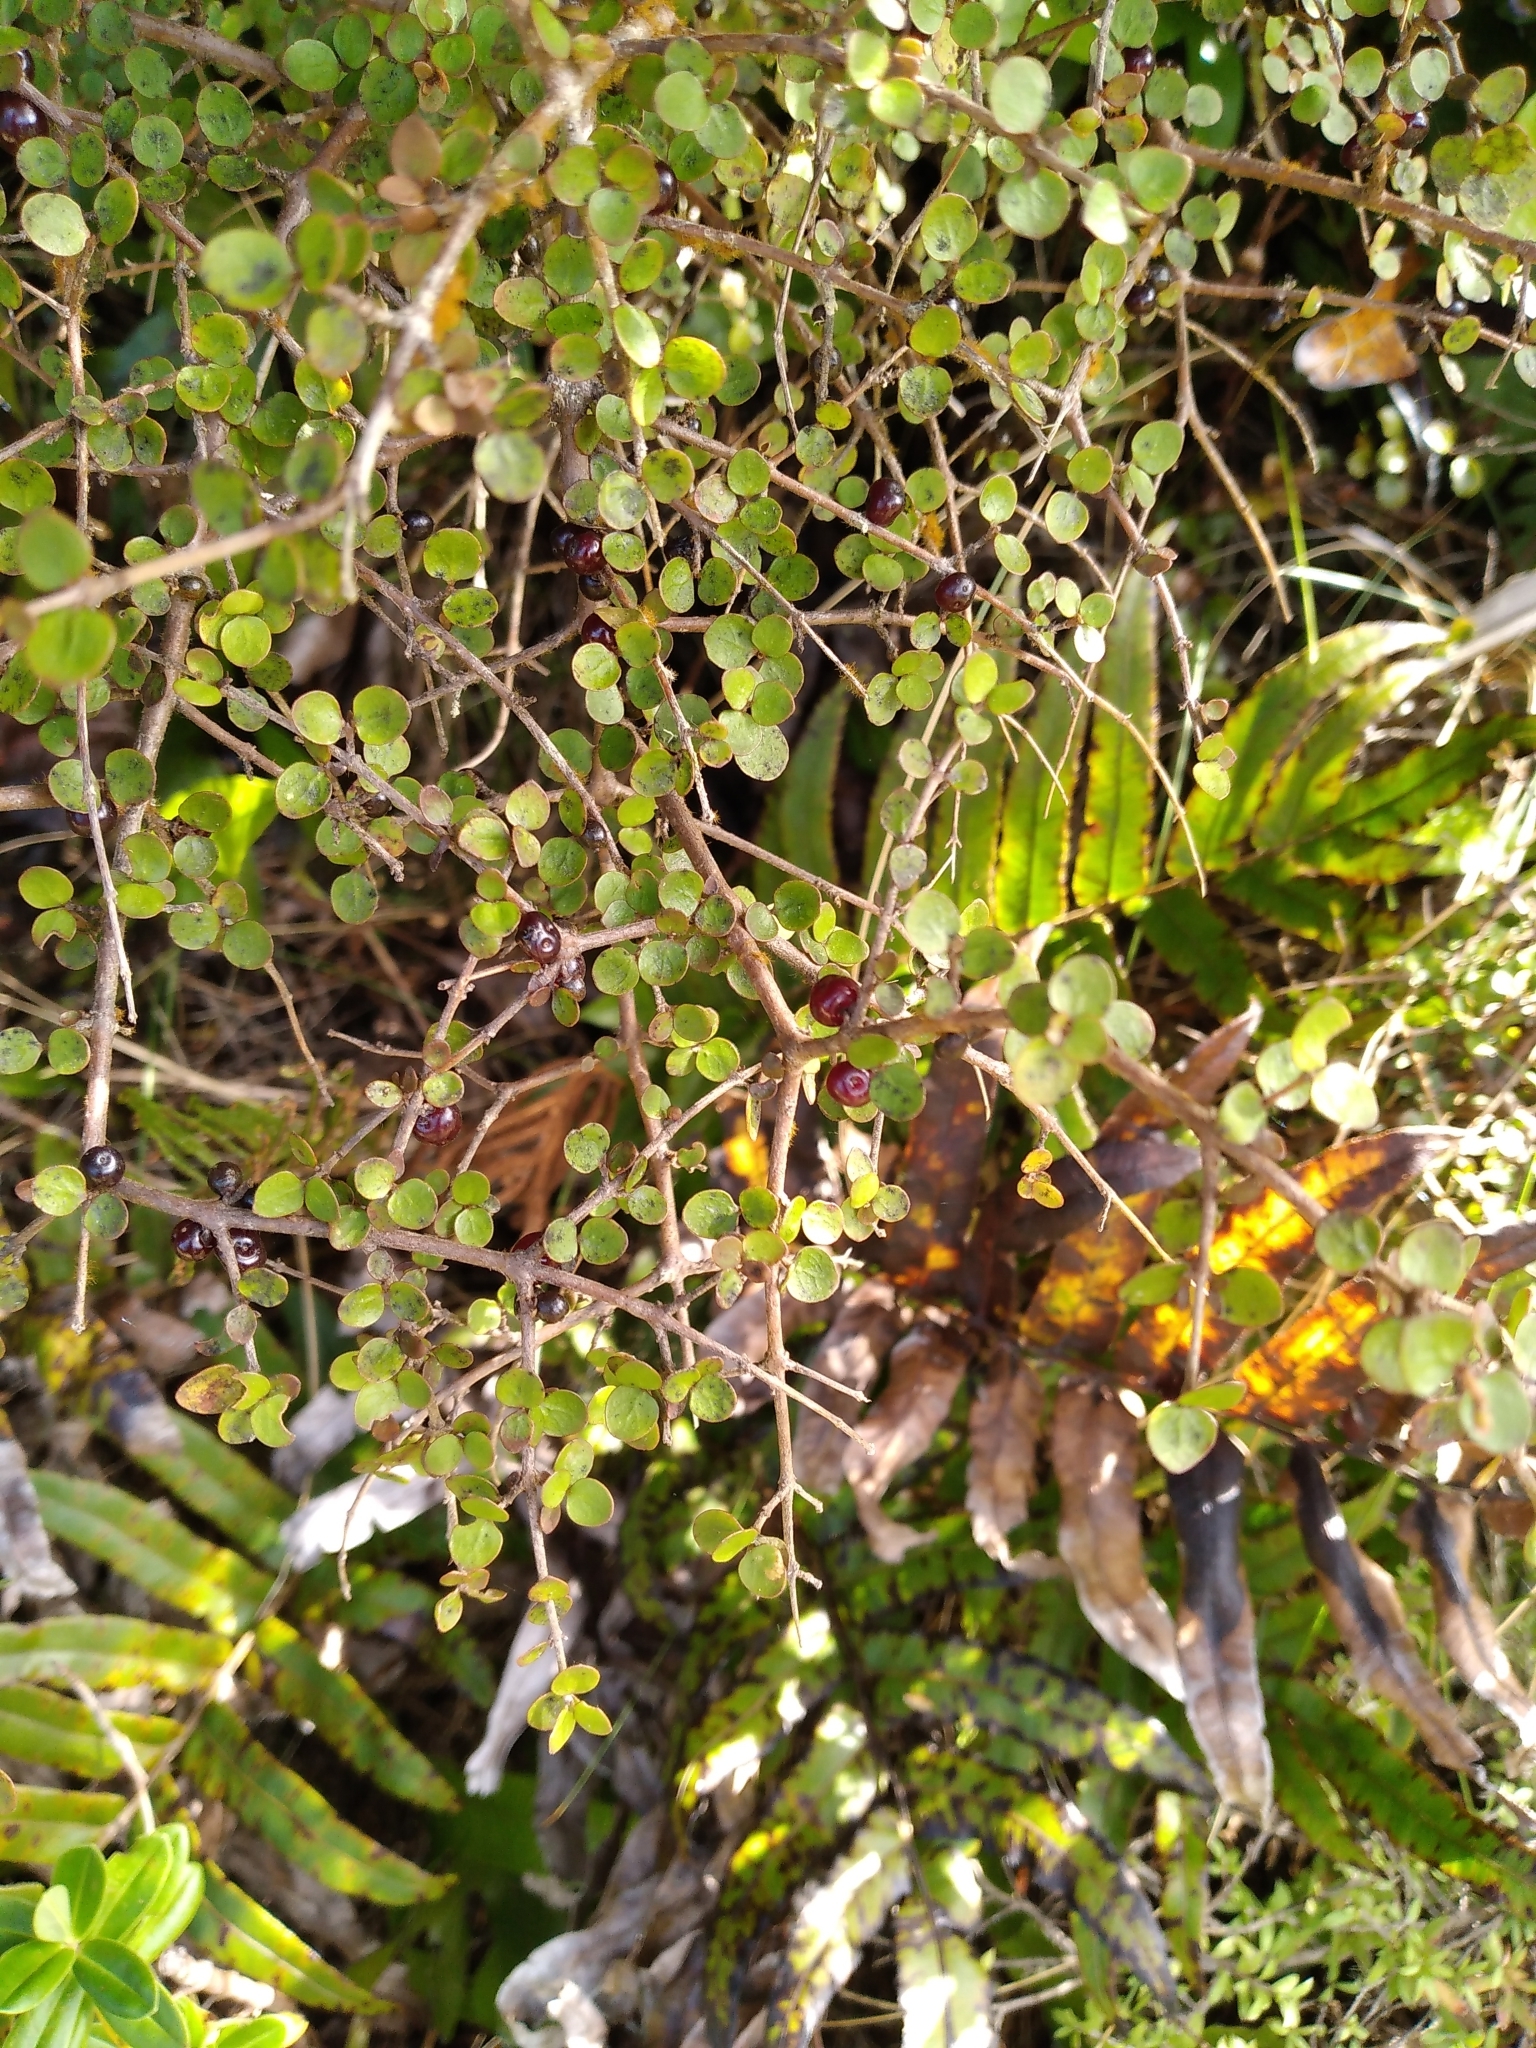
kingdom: Plantae
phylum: Tracheophyta
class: Magnoliopsida
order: Gentianales
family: Rubiaceae
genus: Coprosma
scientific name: Coprosma rhamnoides
